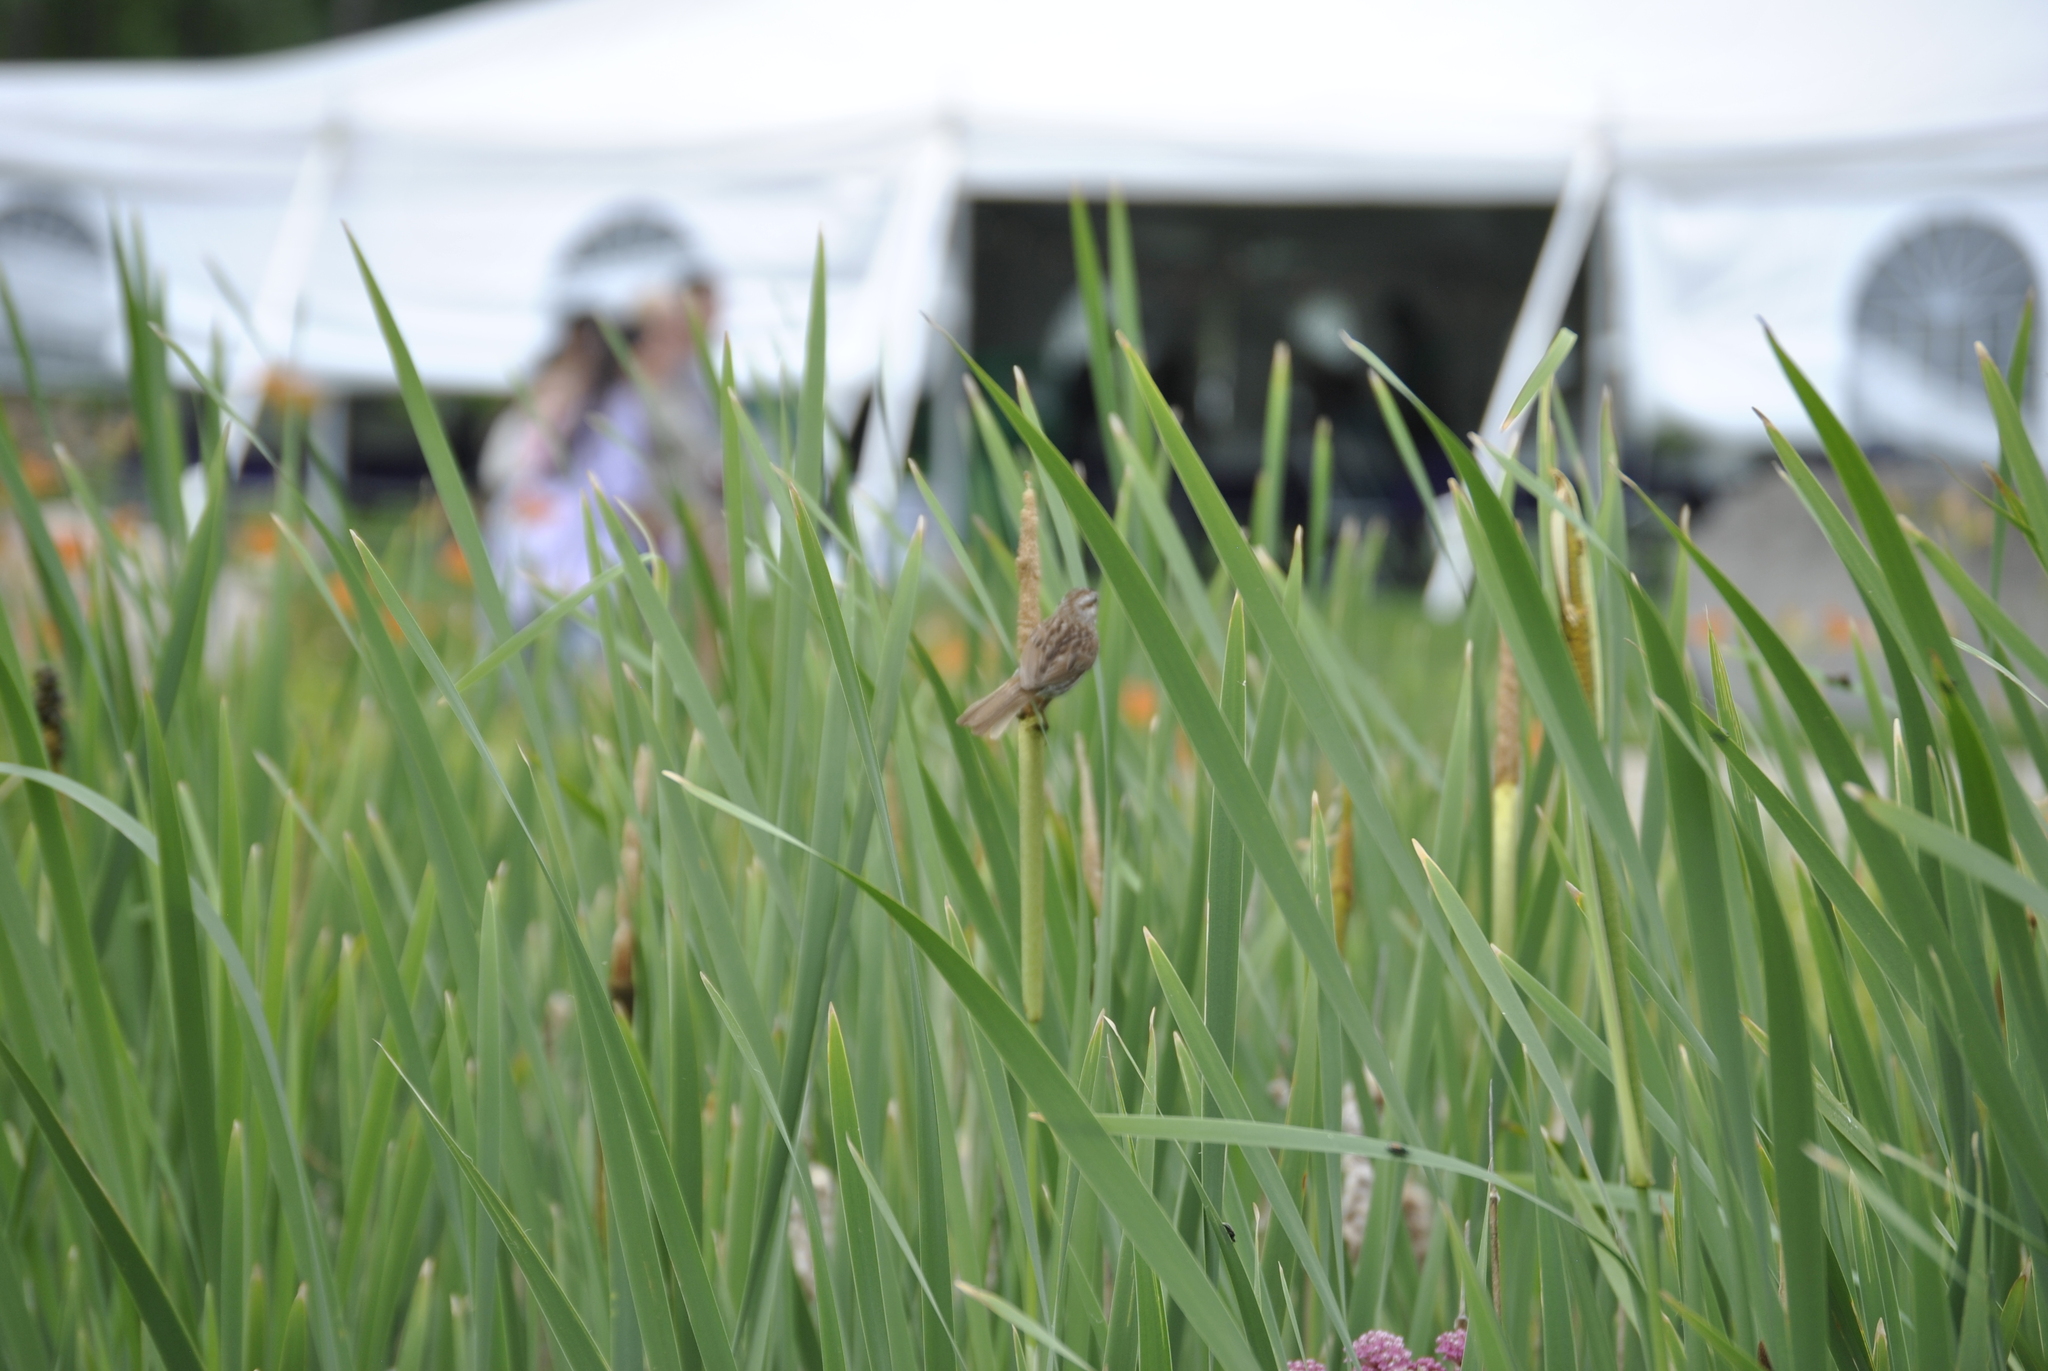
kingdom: Animalia
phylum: Chordata
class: Aves
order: Passeriformes
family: Passerellidae
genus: Melospiza
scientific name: Melospiza melodia
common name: Song sparrow
